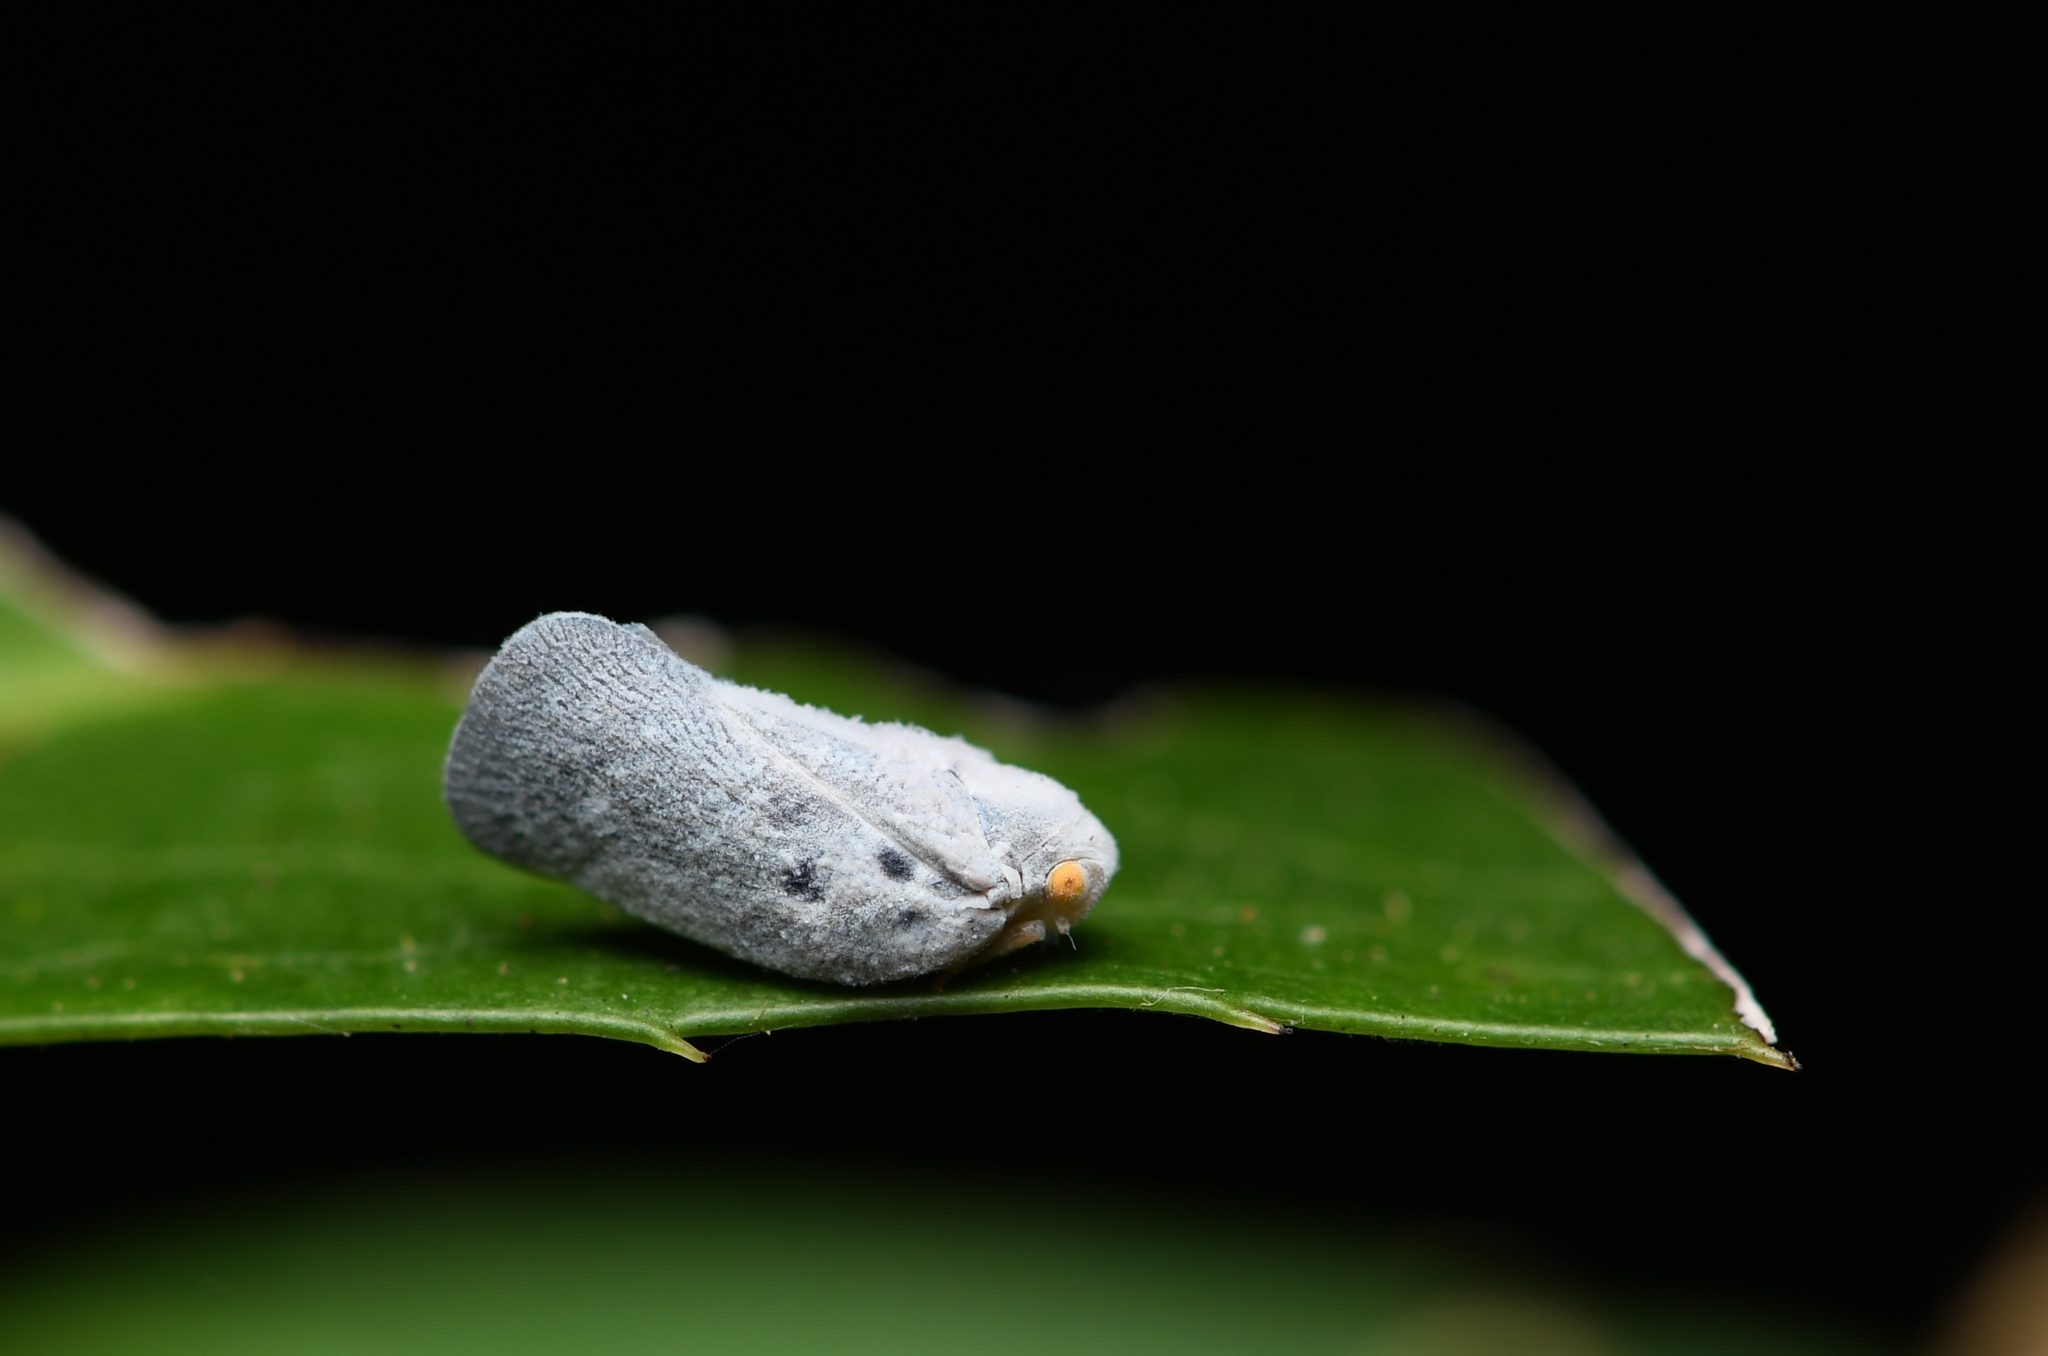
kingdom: Animalia
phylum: Arthropoda
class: Insecta
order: Hemiptera
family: Flatidae
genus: Metcalfa
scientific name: Metcalfa pruinosa
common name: Citrus flatid planthopper
